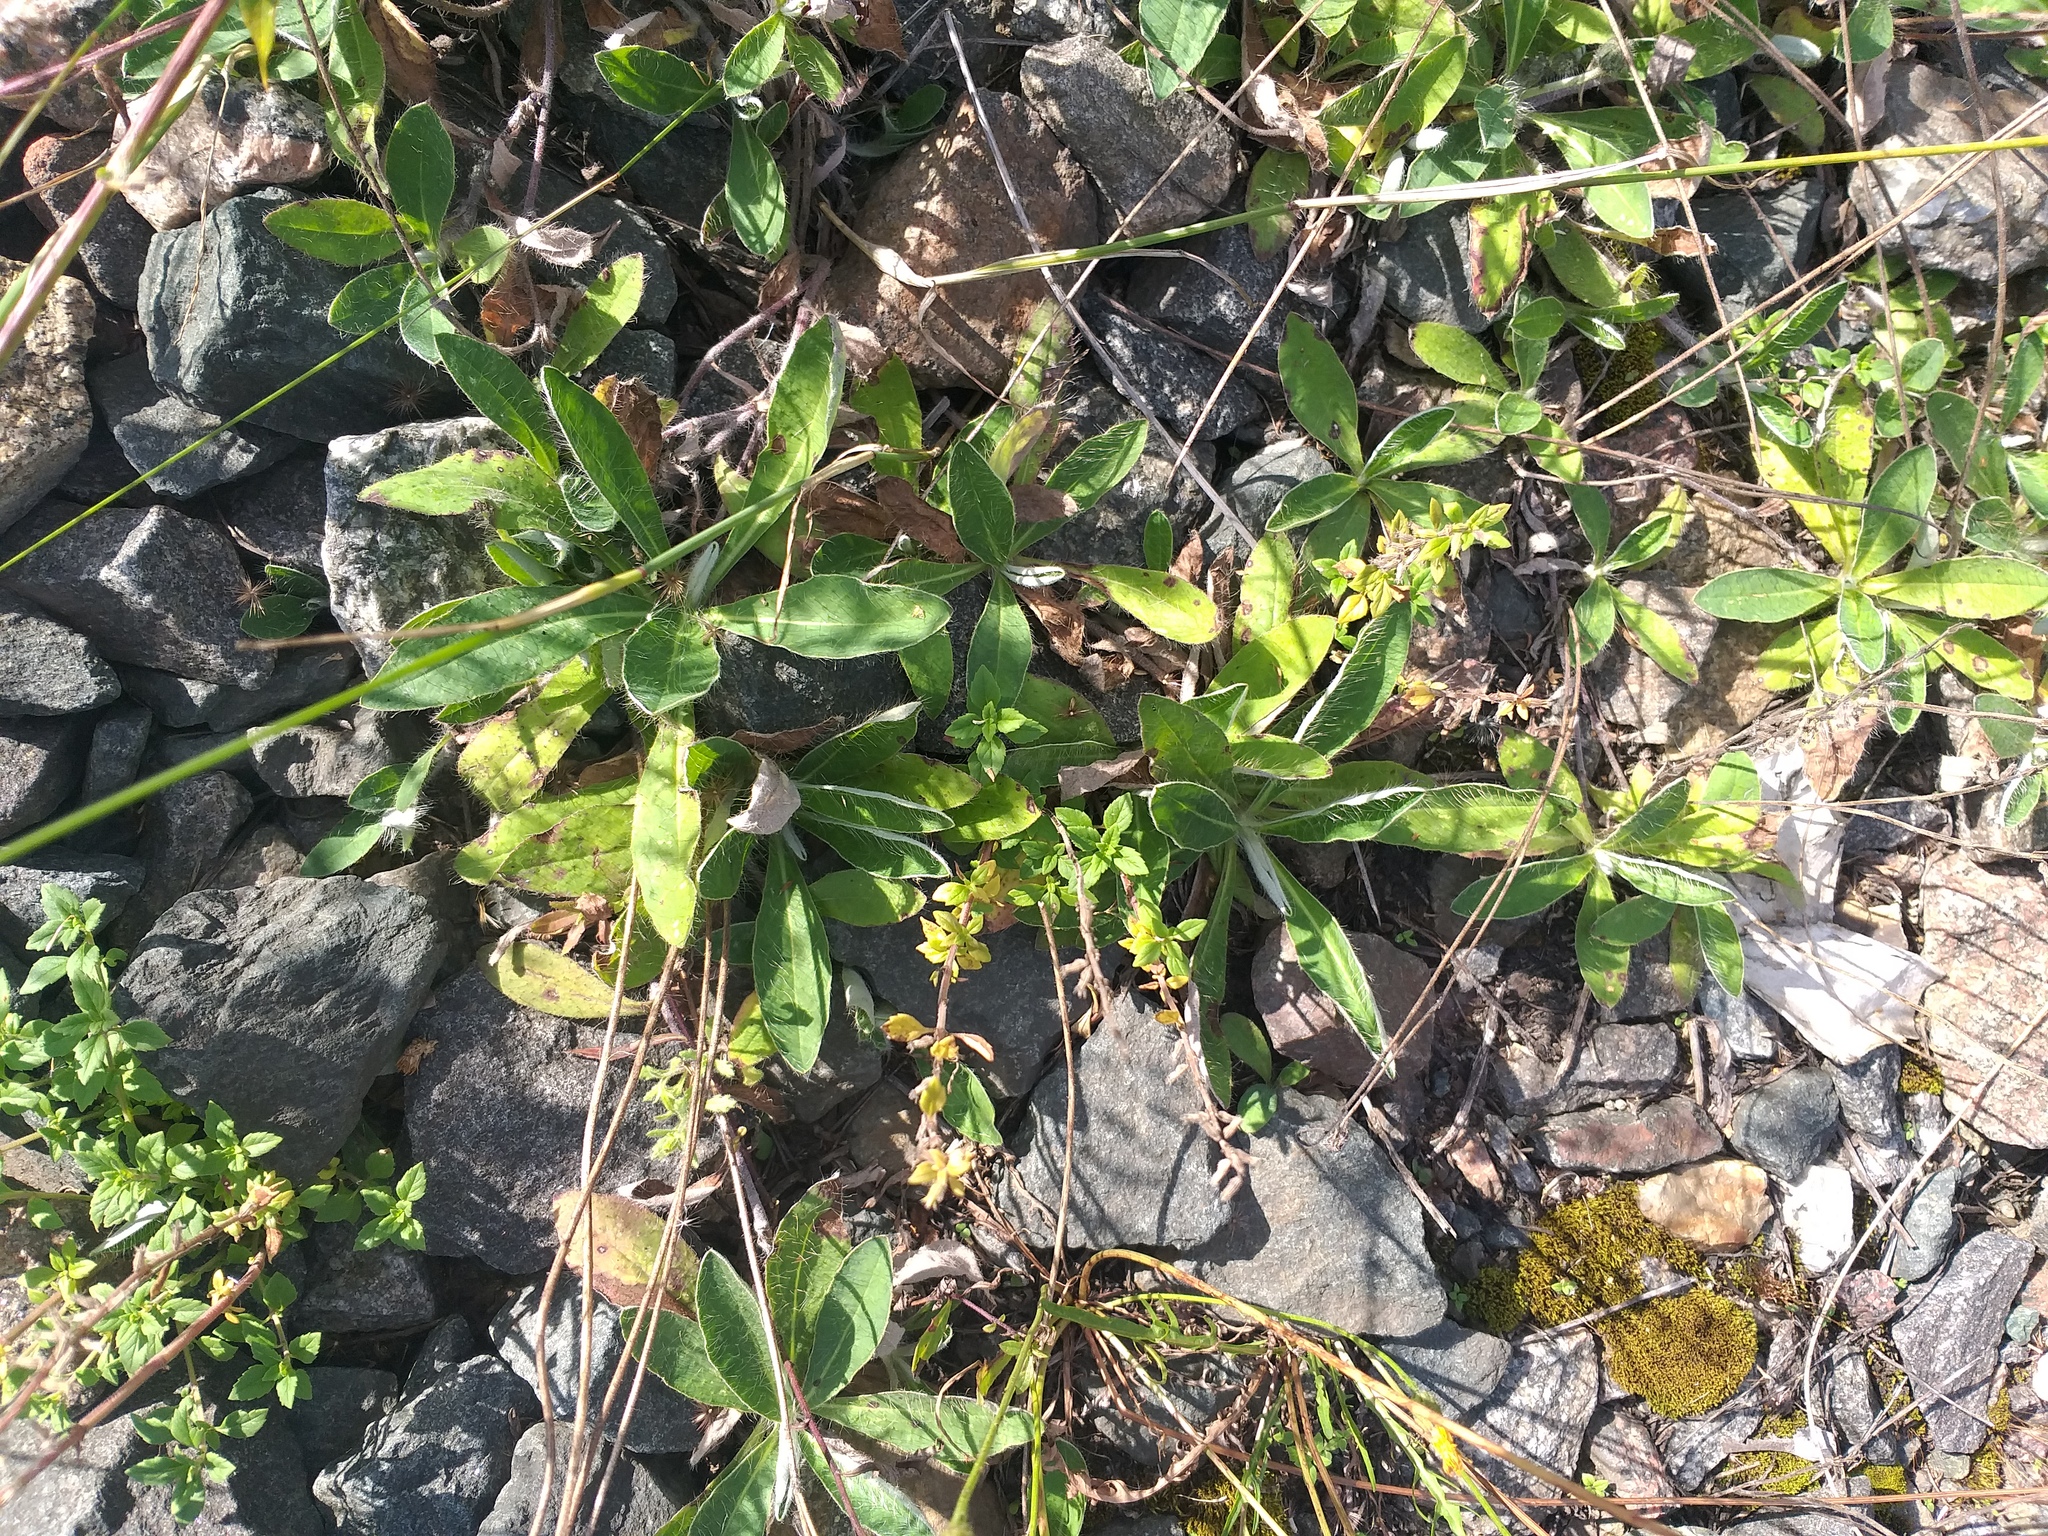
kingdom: Plantae
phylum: Tracheophyta
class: Magnoliopsida
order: Asterales
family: Asteraceae
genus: Pilosella
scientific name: Pilosella officinarum
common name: Mouse-ear hawkweed
